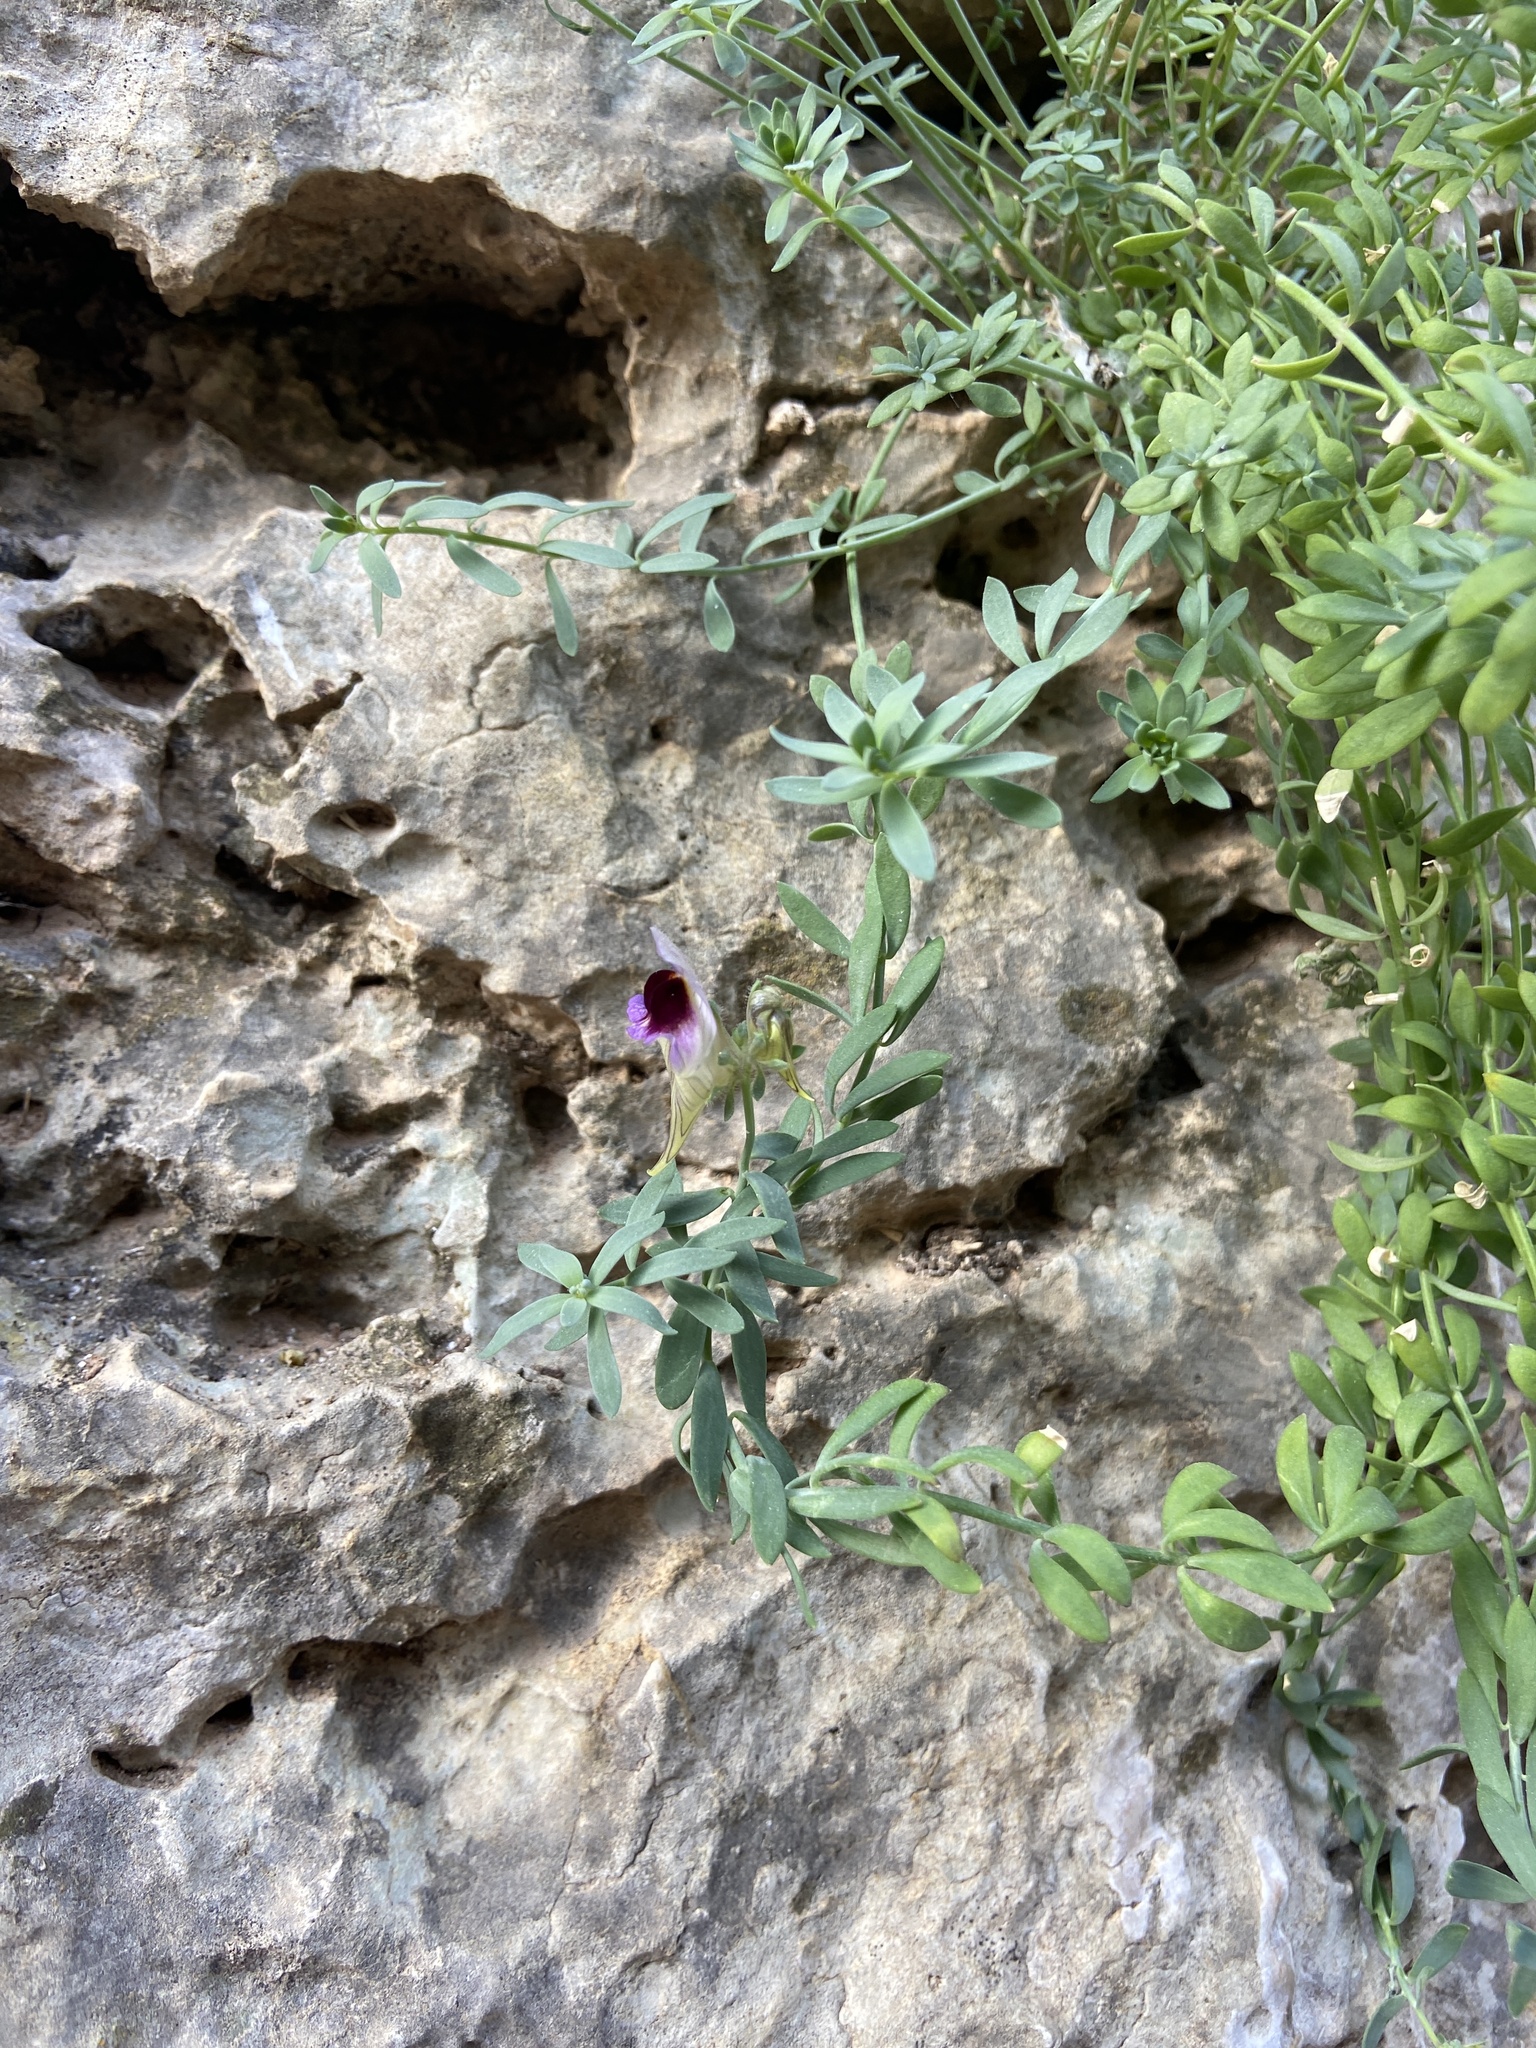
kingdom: Plantae
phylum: Tracheophyta
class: Magnoliopsida
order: Lamiales
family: Plantaginaceae
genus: Linaria
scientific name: Linaria verticillata
